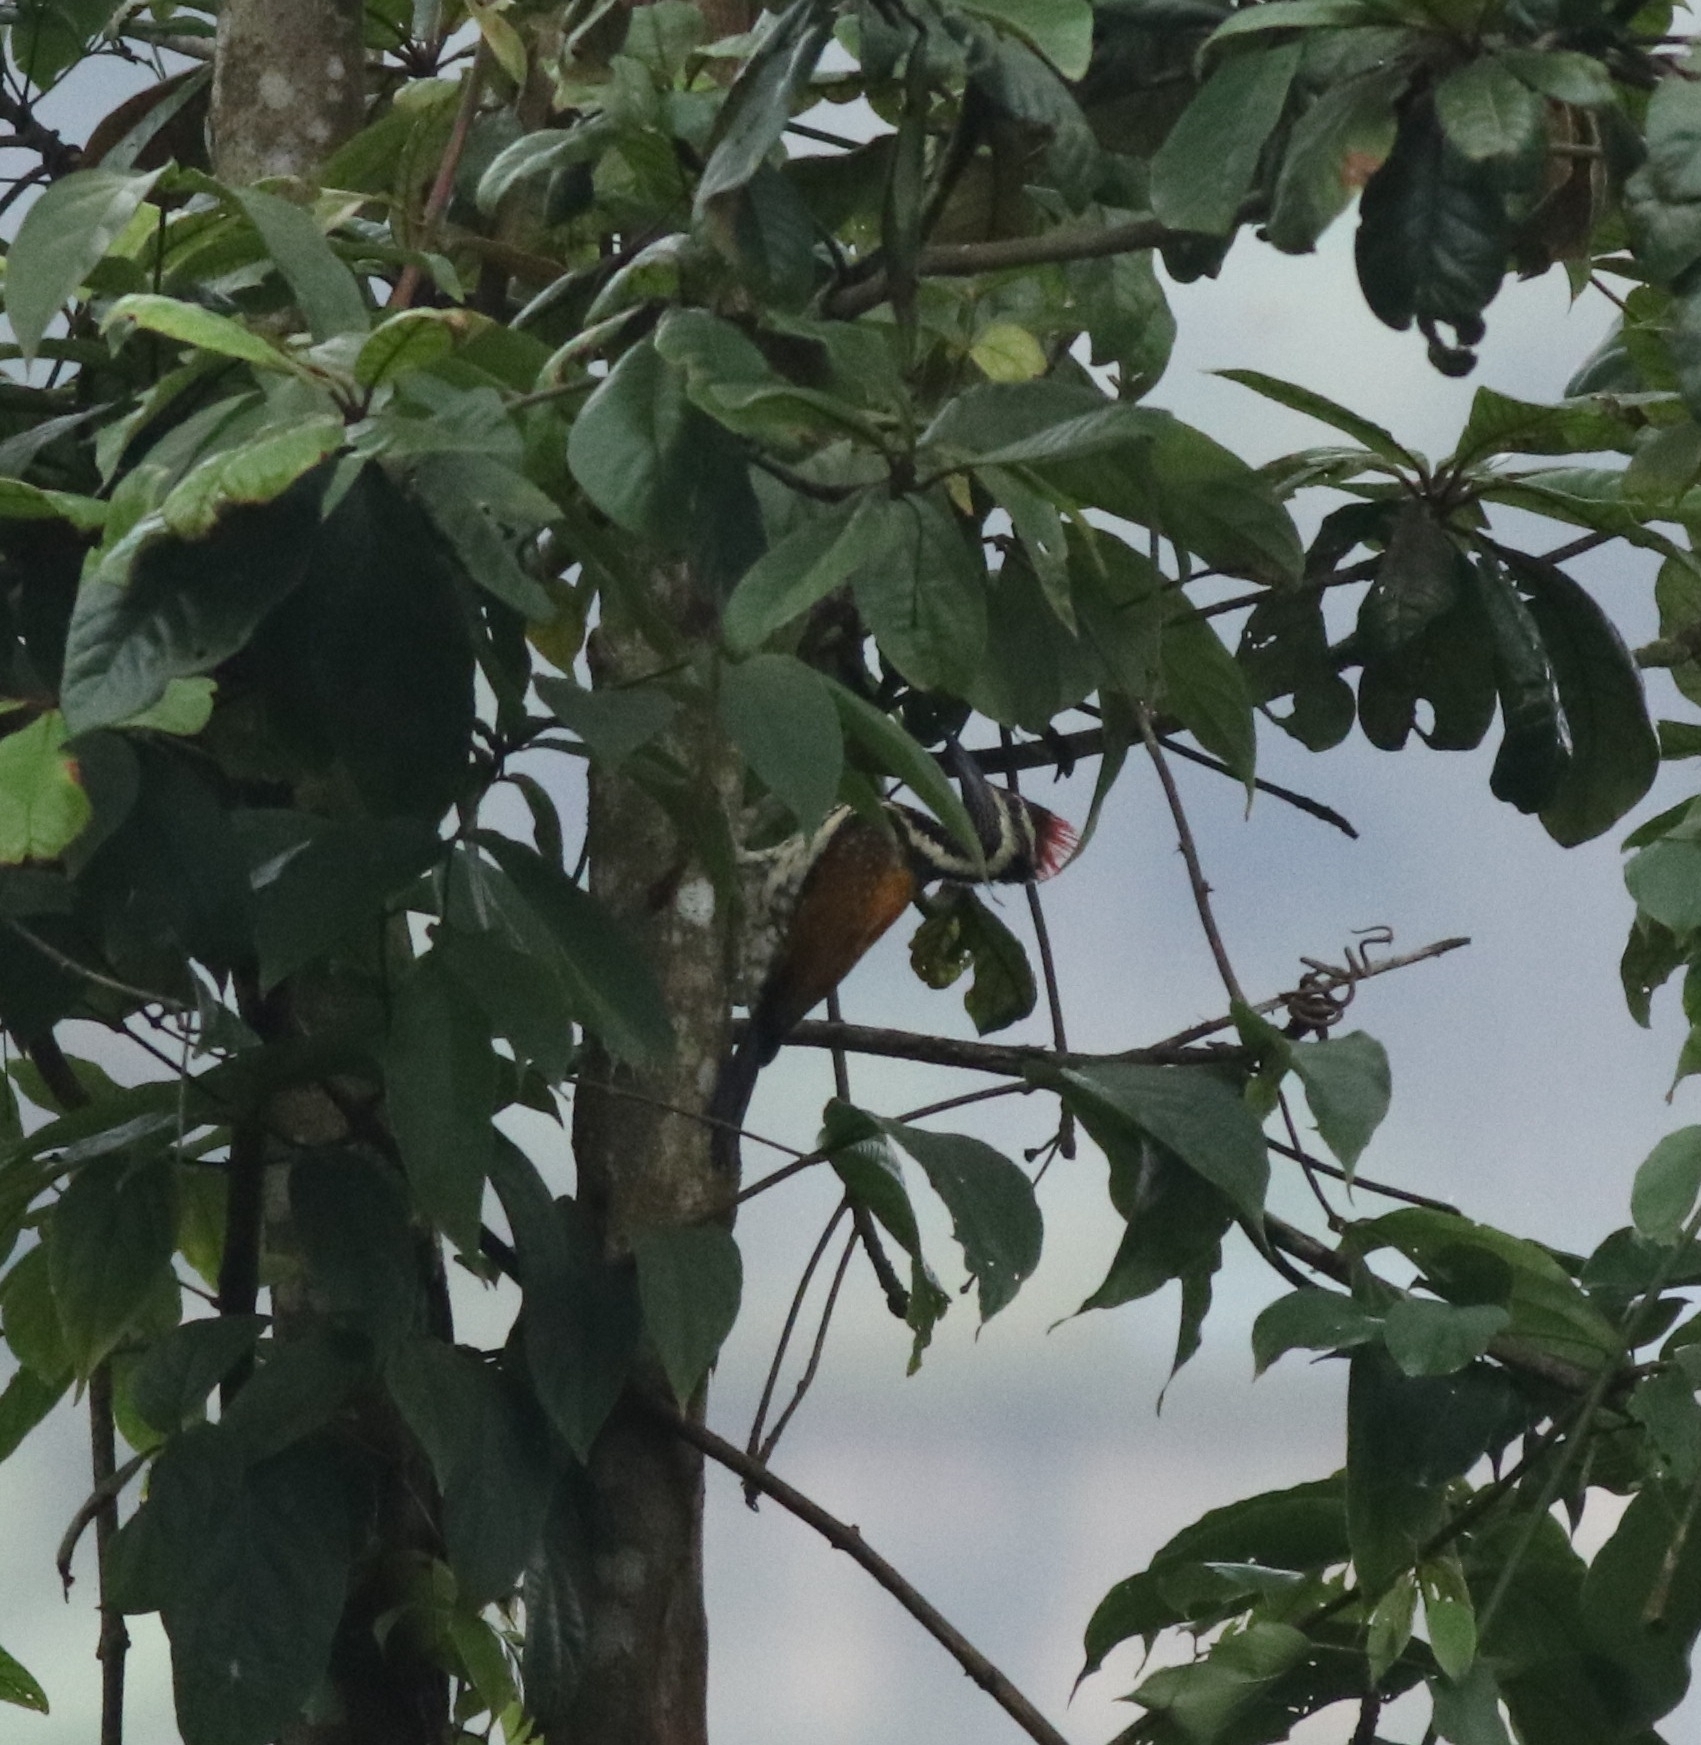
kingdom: Animalia
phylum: Chordata
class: Aves
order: Piciformes
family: Picidae
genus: Dinopium
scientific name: Dinopium benghalense
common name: Black-rumped flameback
